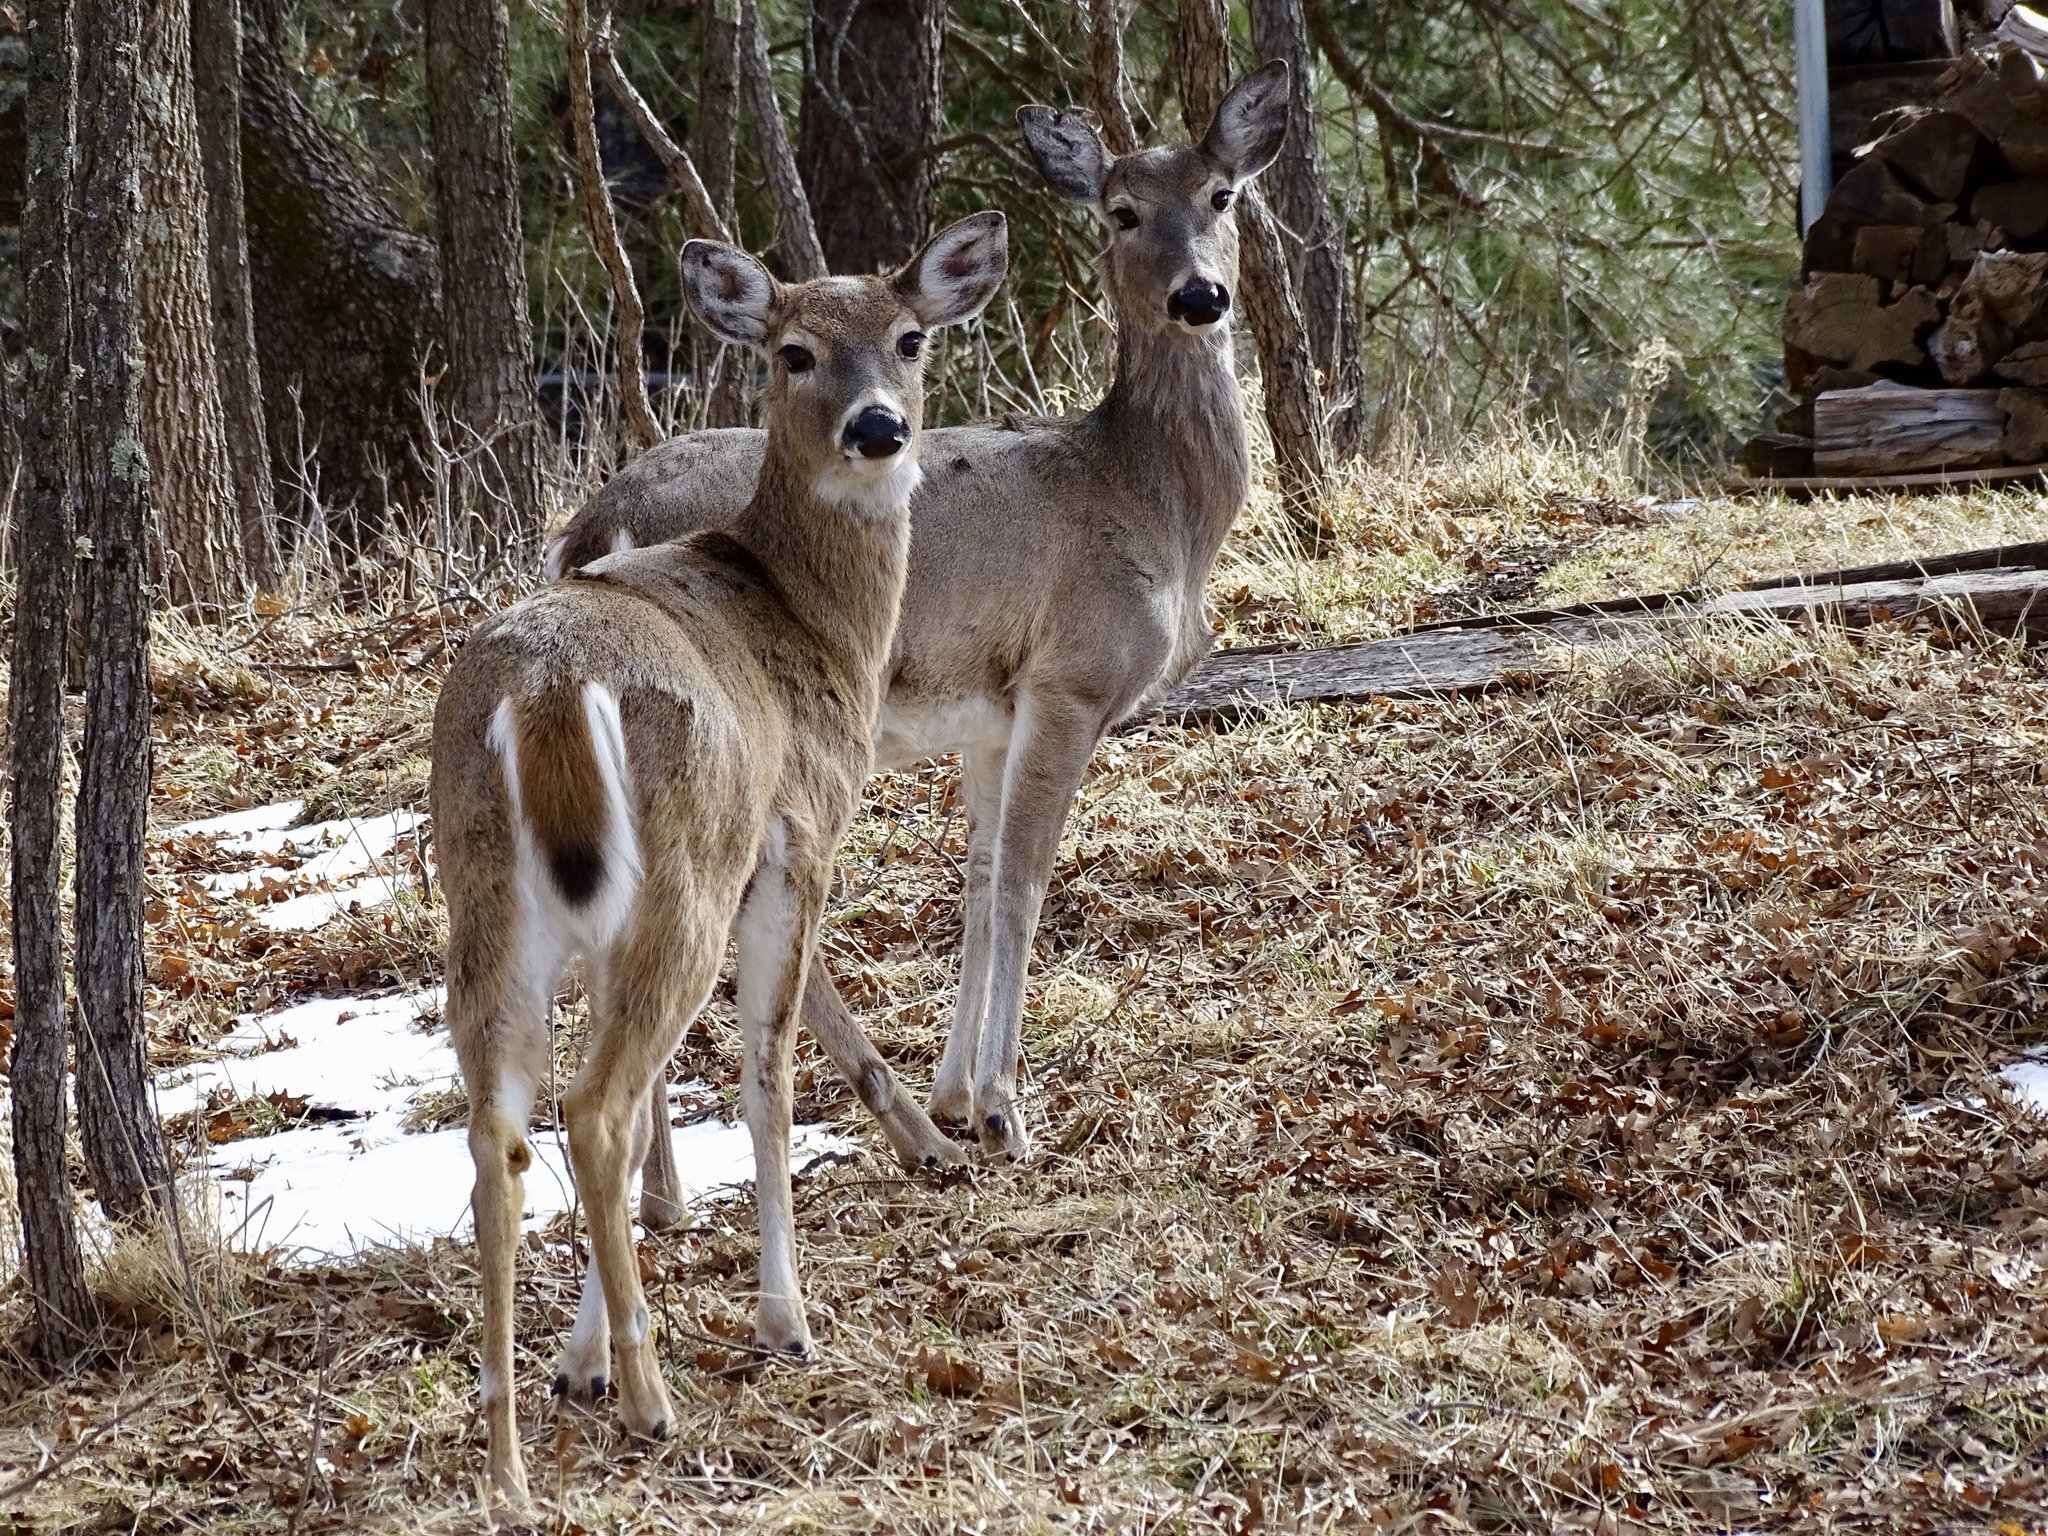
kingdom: Animalia
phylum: Chordata
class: Mammalia
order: Artiodactyla
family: Cervidae
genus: Odocoileus
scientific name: Odocoileus virginianus
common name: White-tailed deer
